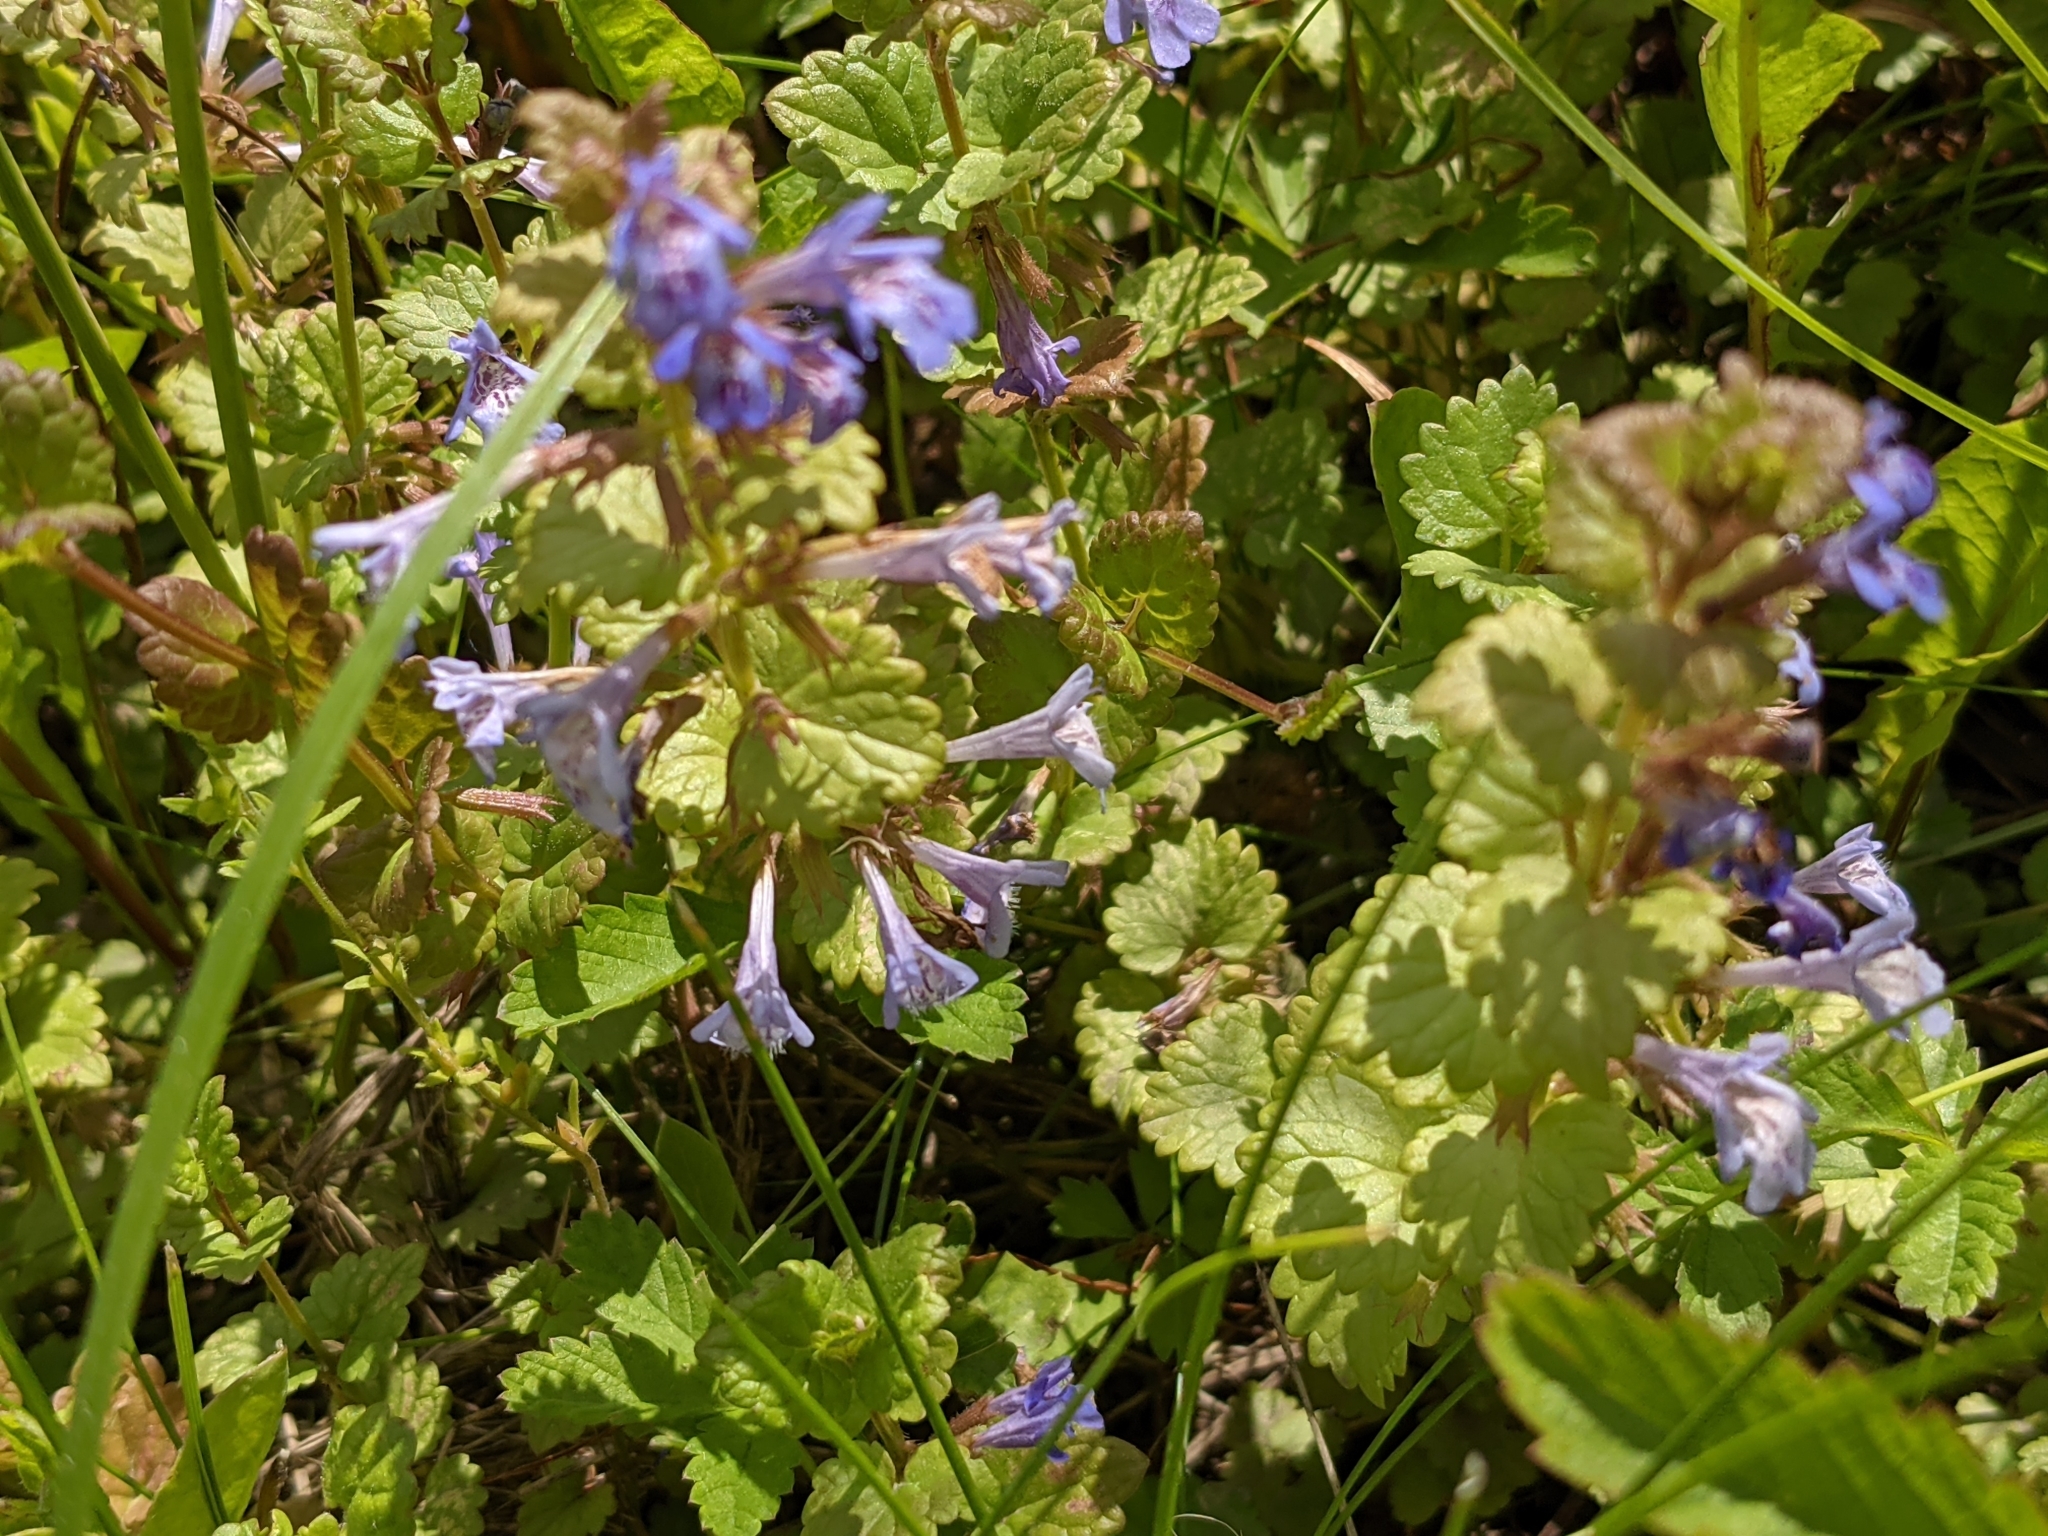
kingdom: Plantae
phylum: Tracheophyta
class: Magnoliopsida
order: Lamiales
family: Lamiaceae
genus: Glechoma
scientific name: Glechoma hederacea
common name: Ground ivy
